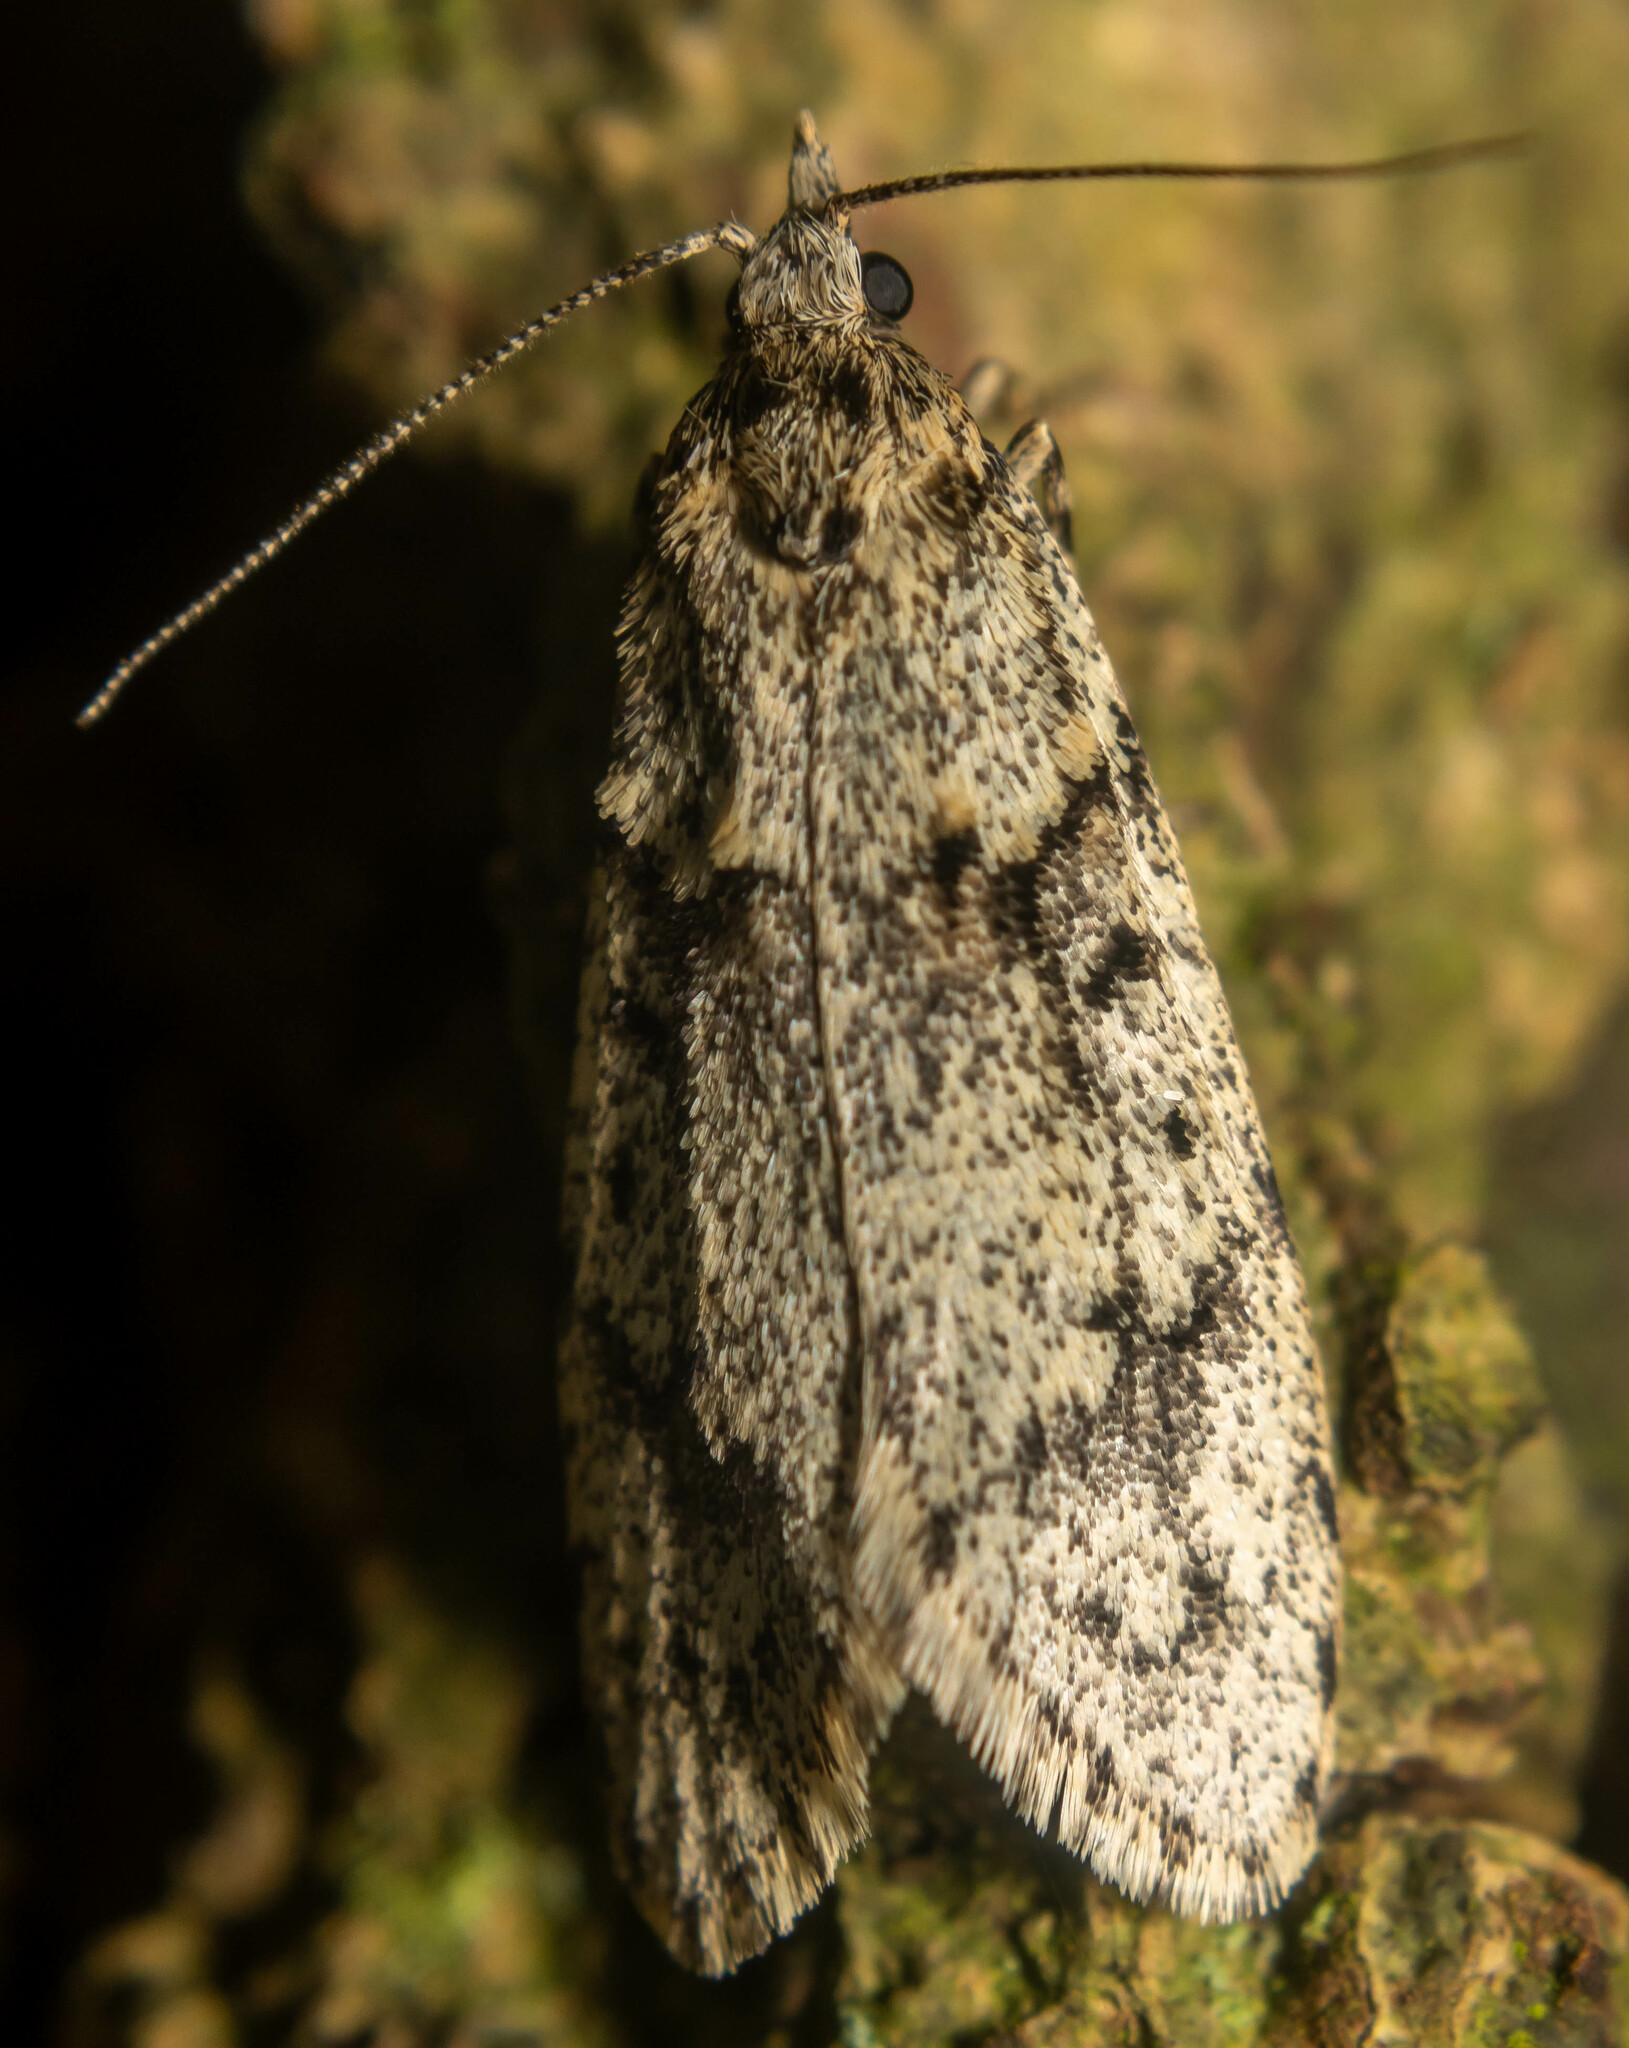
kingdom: Animalia
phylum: Arthropoda
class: Insecta
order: Lepidoptera
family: Lypusidae
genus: Diurnea
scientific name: Diurnea fagella
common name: March tubic
